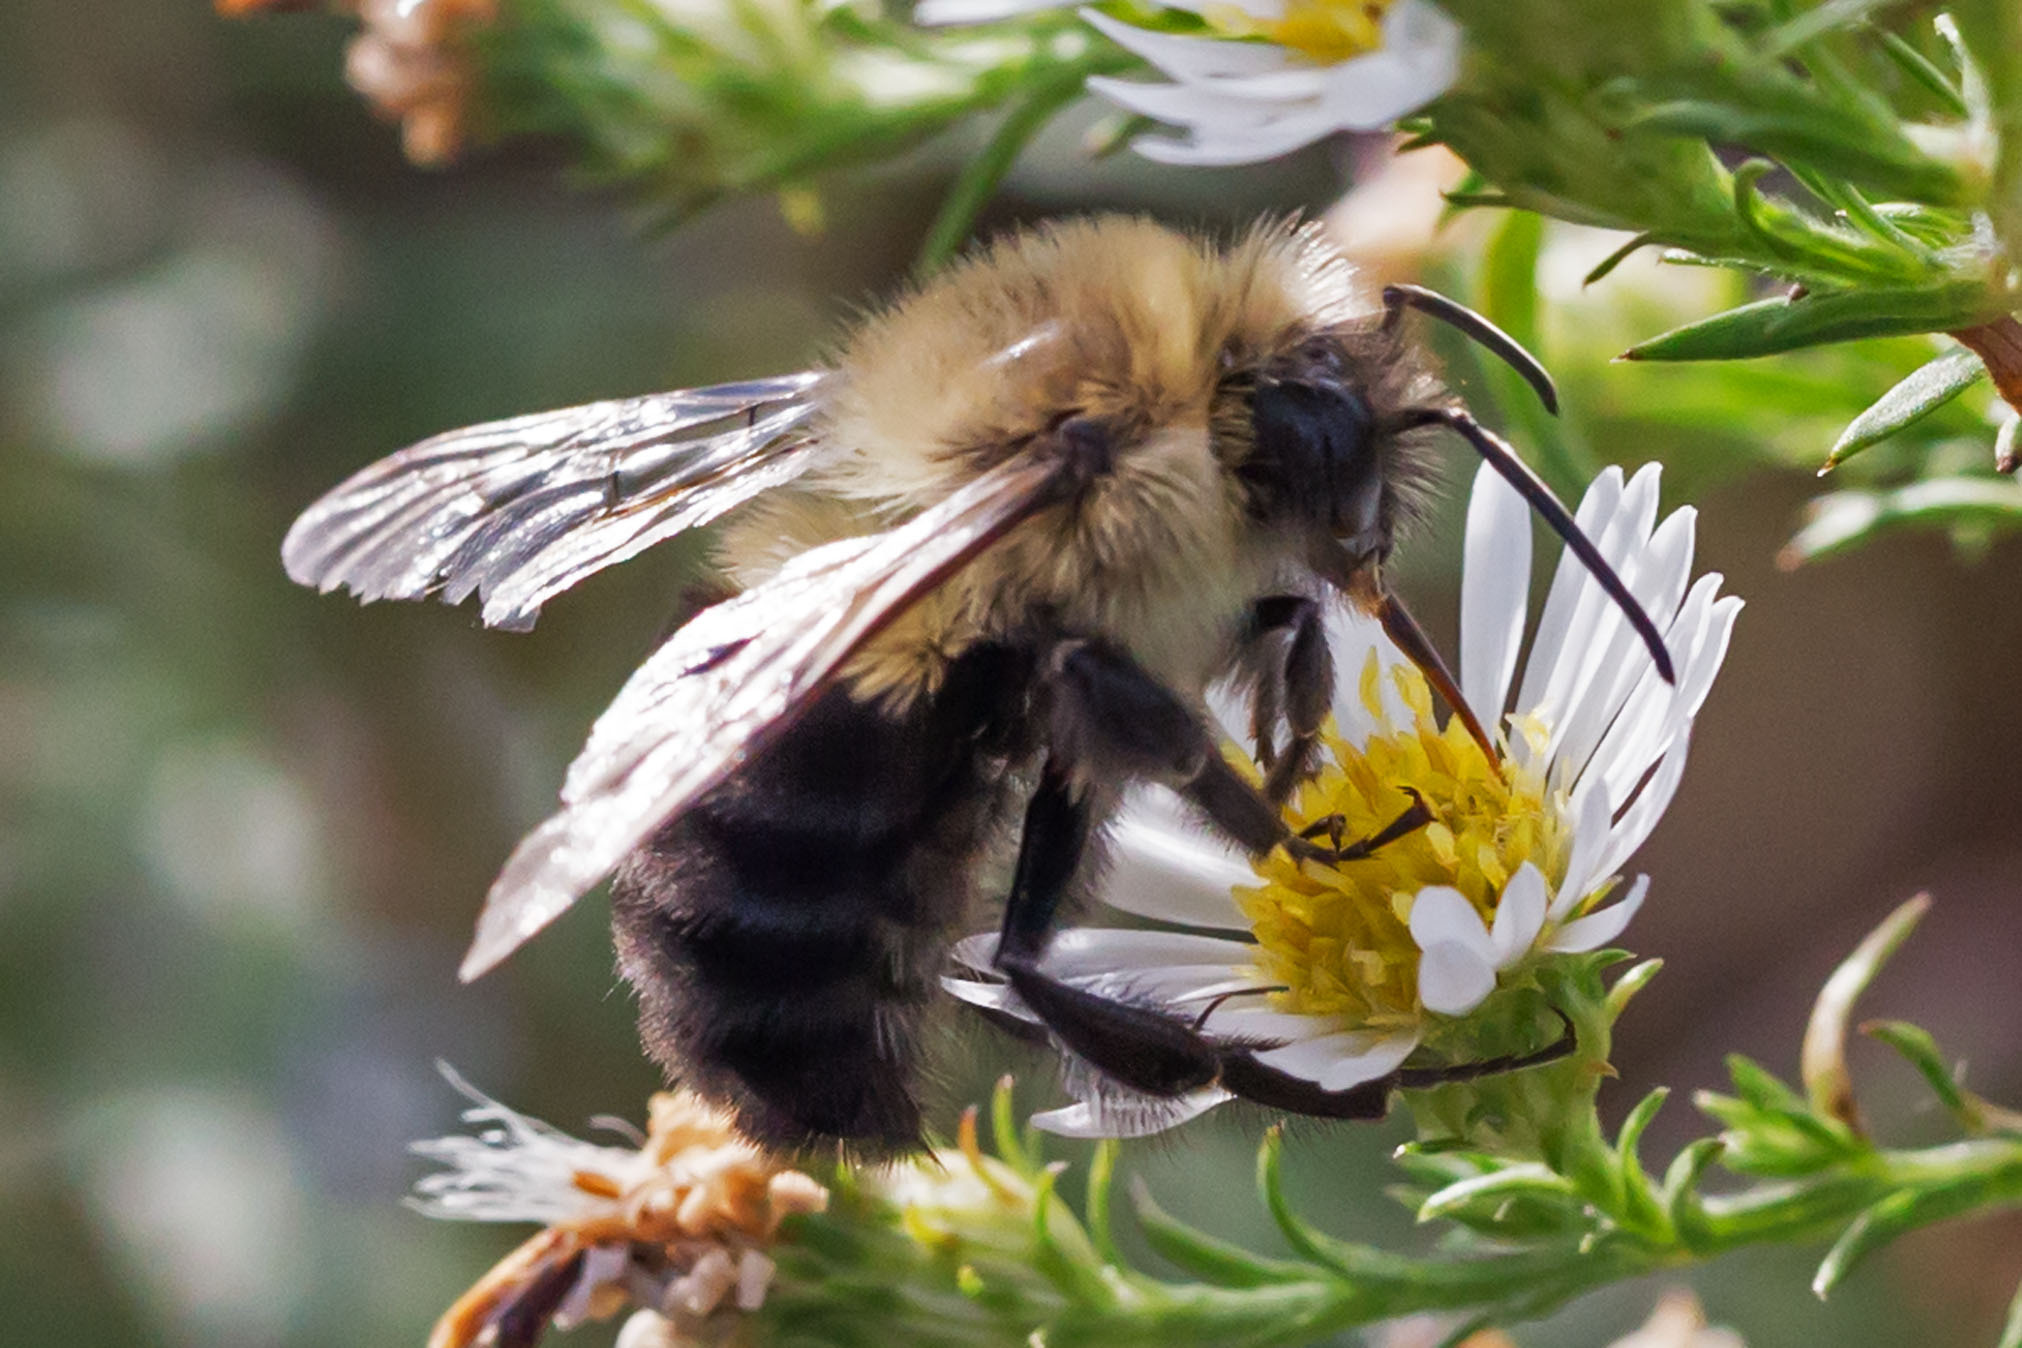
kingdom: Animalia
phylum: Arthropoda
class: Insecta
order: Hymenoptera
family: Apidae
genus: Bombus
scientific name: Bombus impatiens
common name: Common eastern bumble bee
